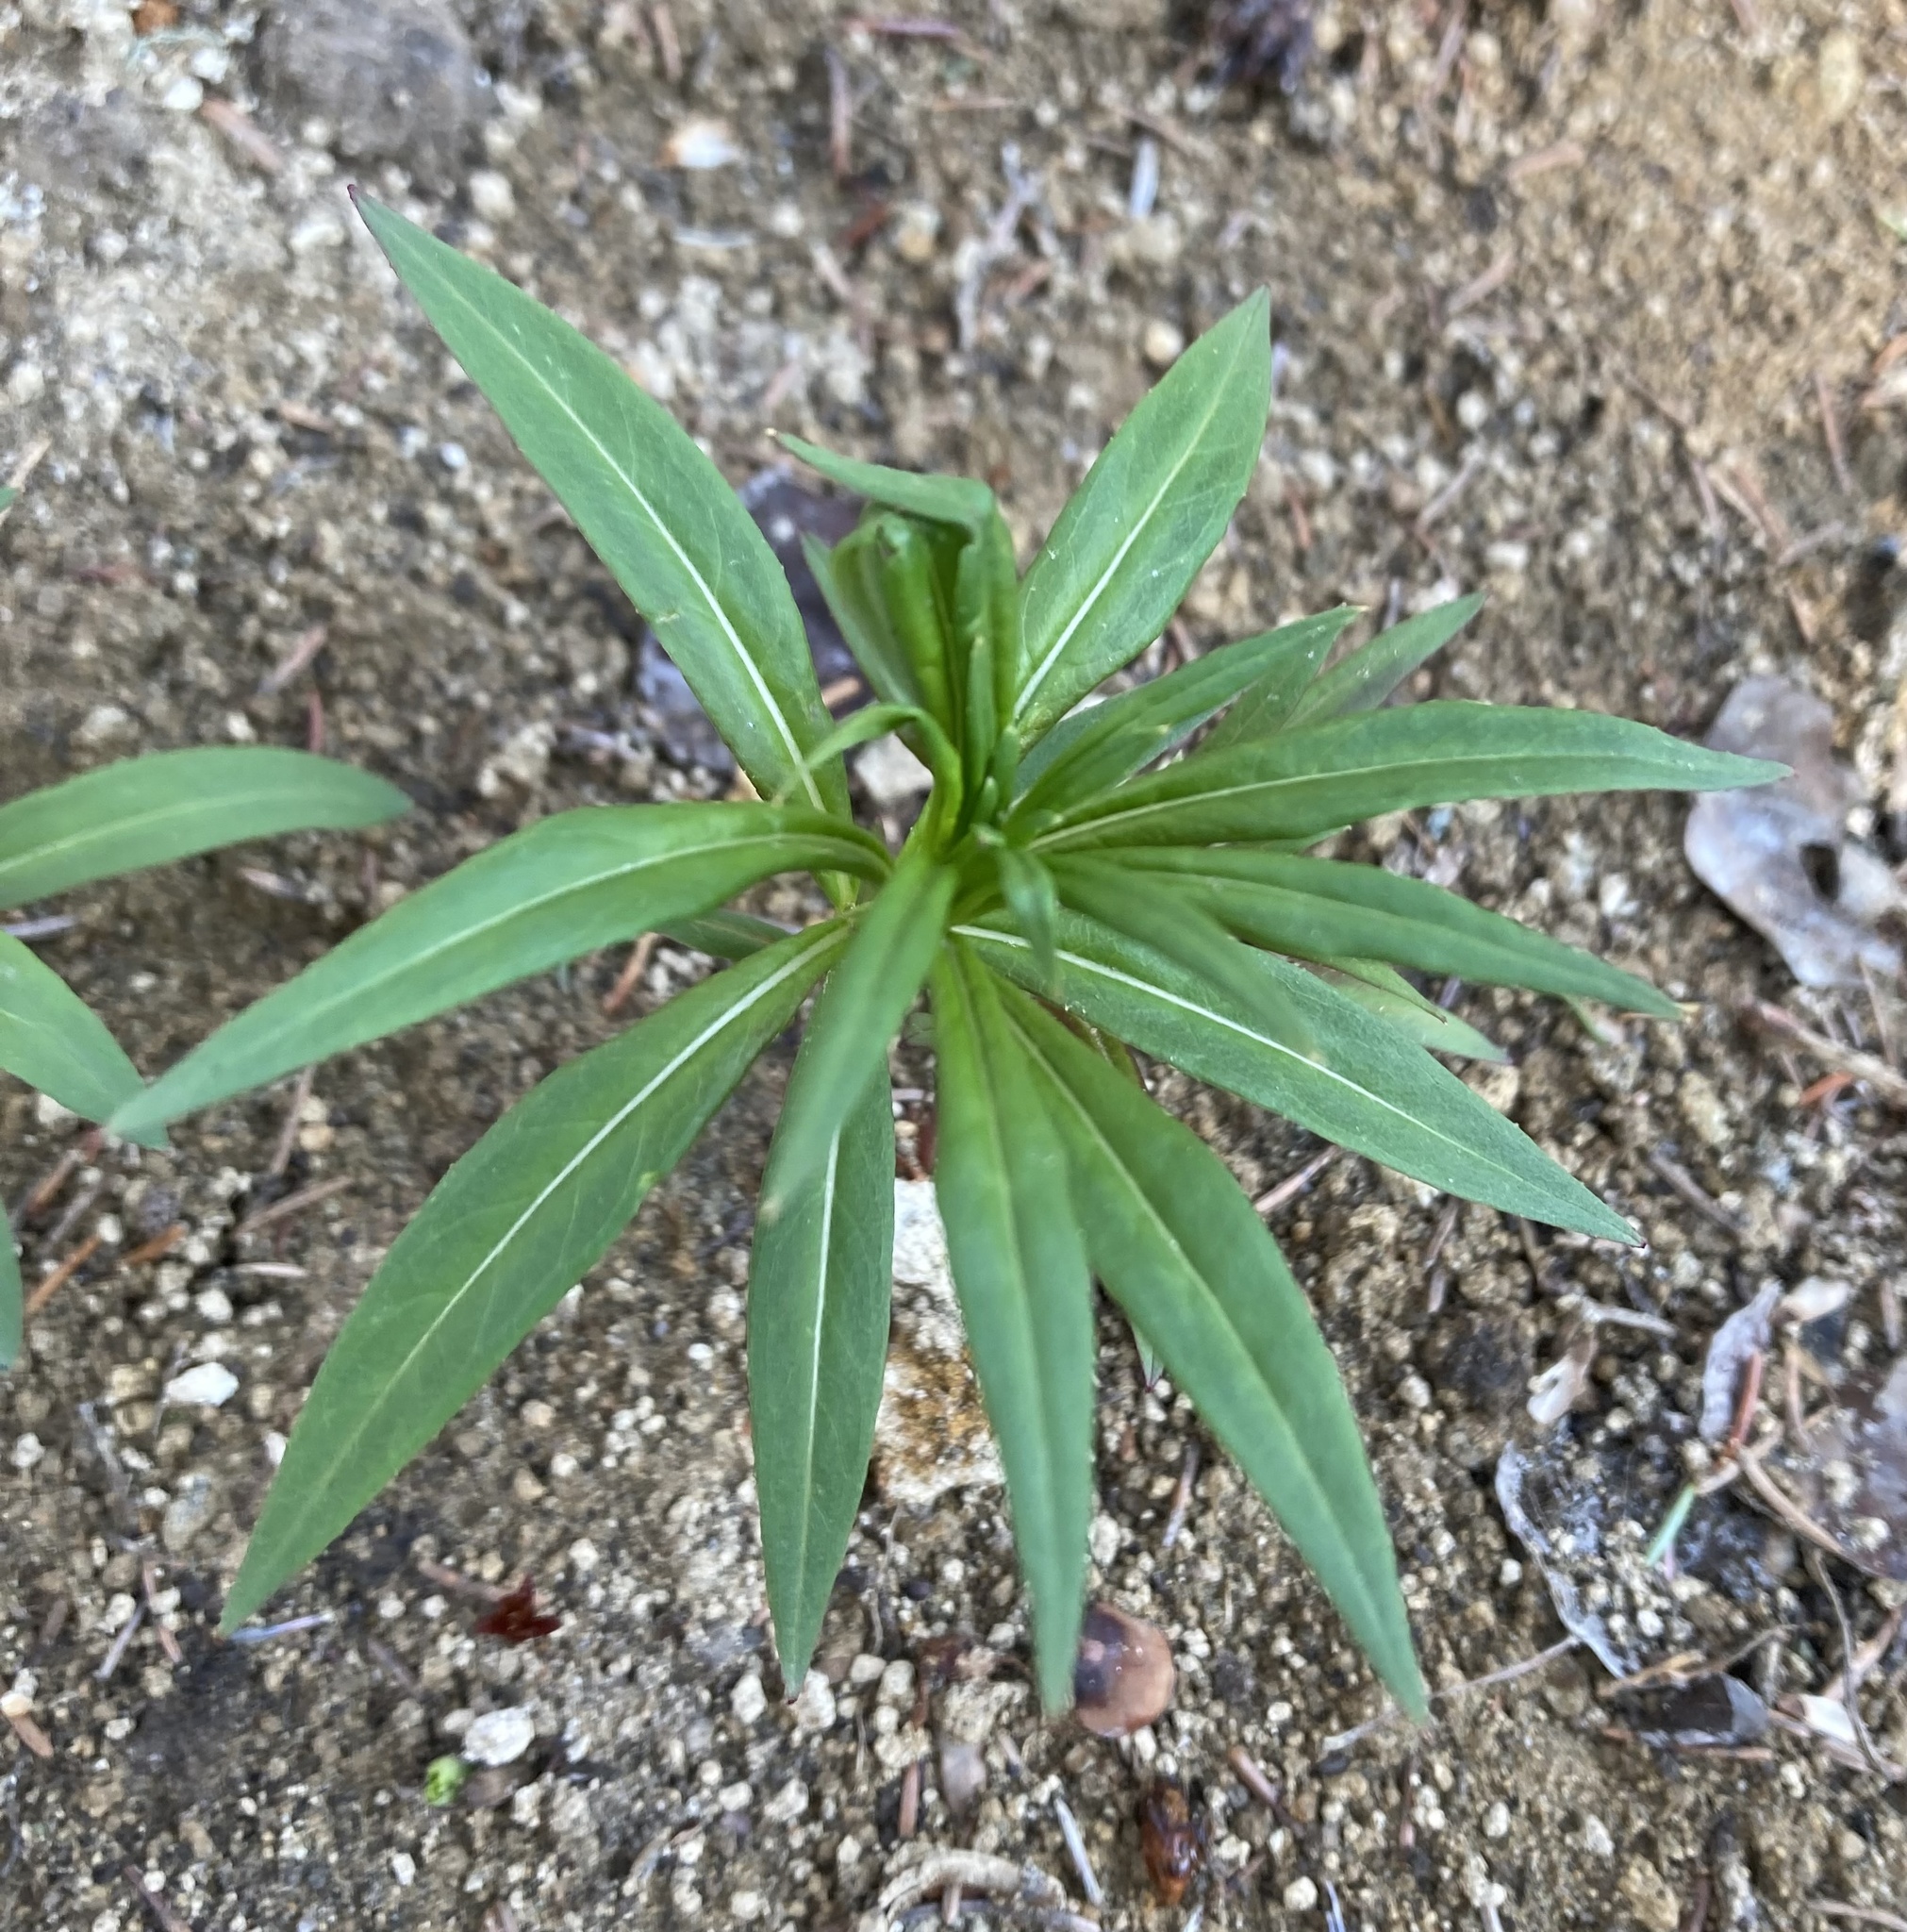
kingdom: Plantae
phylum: Tracheophyta
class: Magnoliopsida
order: Myrtales
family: Onagraceae
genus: Chamaenerion
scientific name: Chamaenerion angustifolium
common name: Fireweed
